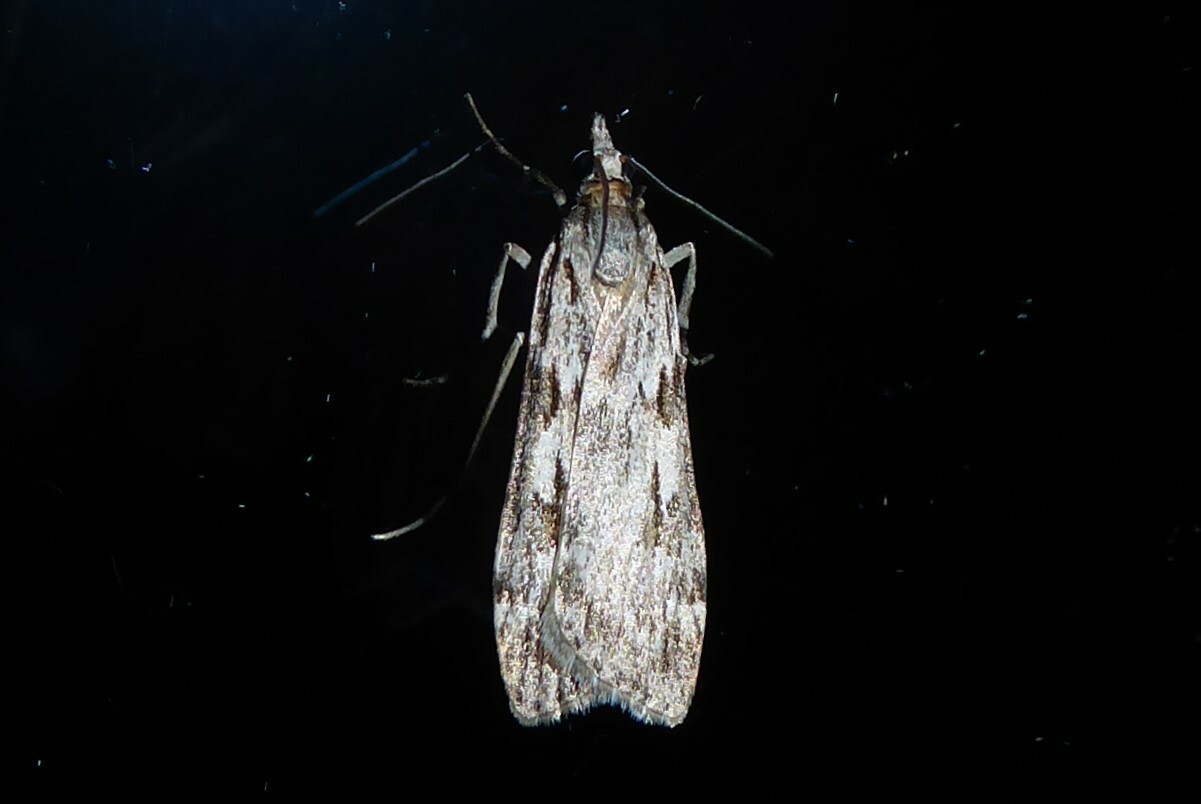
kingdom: Animalia
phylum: Arthropoda
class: Insecta
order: Lepidoptera
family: Crambidae
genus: Scoparia
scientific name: Scoparia halopis
